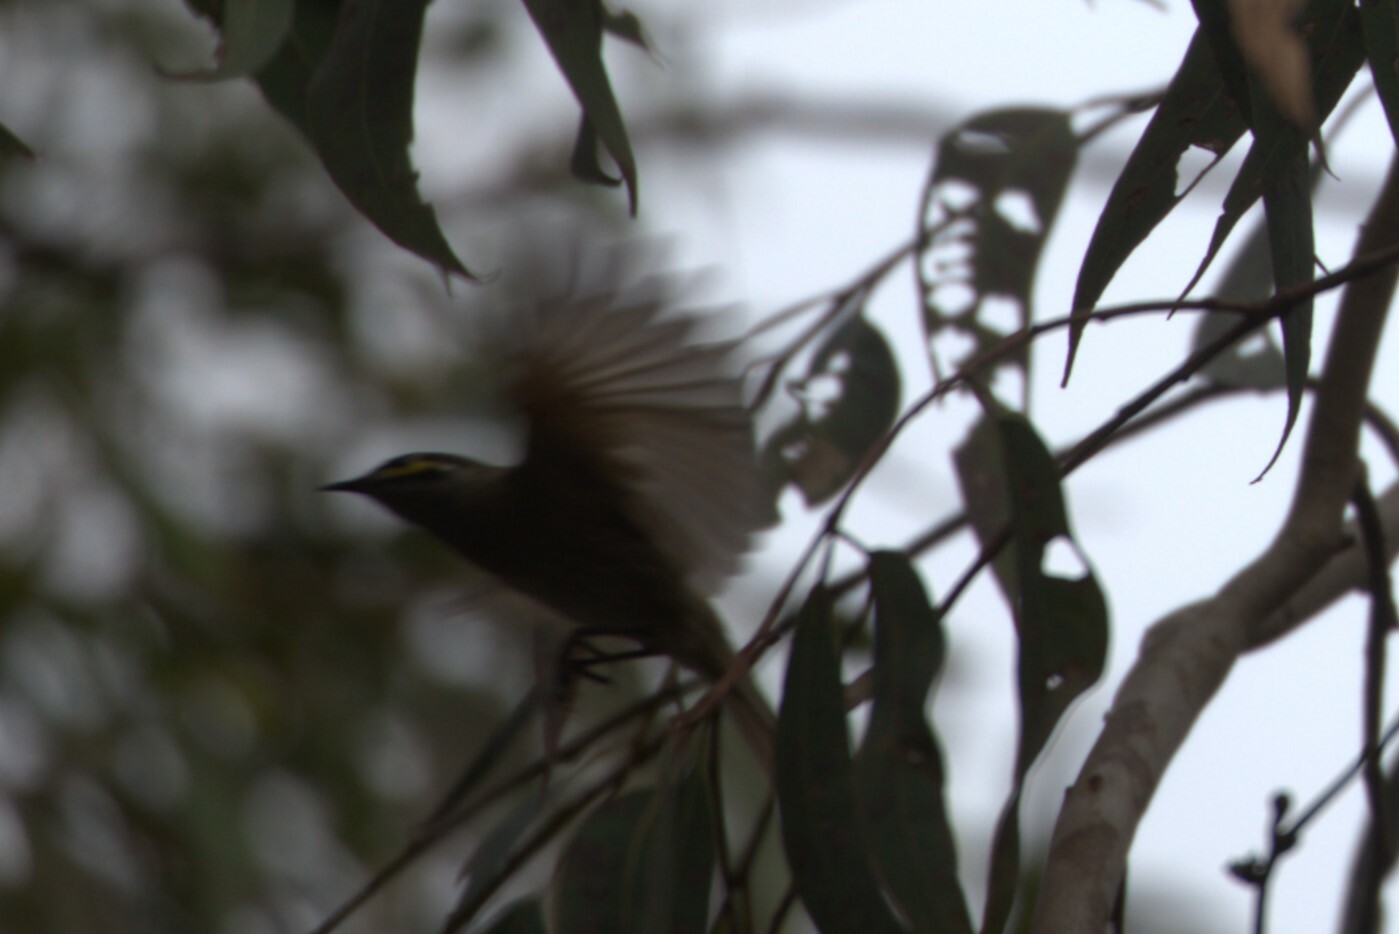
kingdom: Animalia
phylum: Chordata
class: Aves
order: Passeriformes
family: Meliphagidae
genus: Caligavis
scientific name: Caligavis chrysops
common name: Yellow-faced honeyeater
